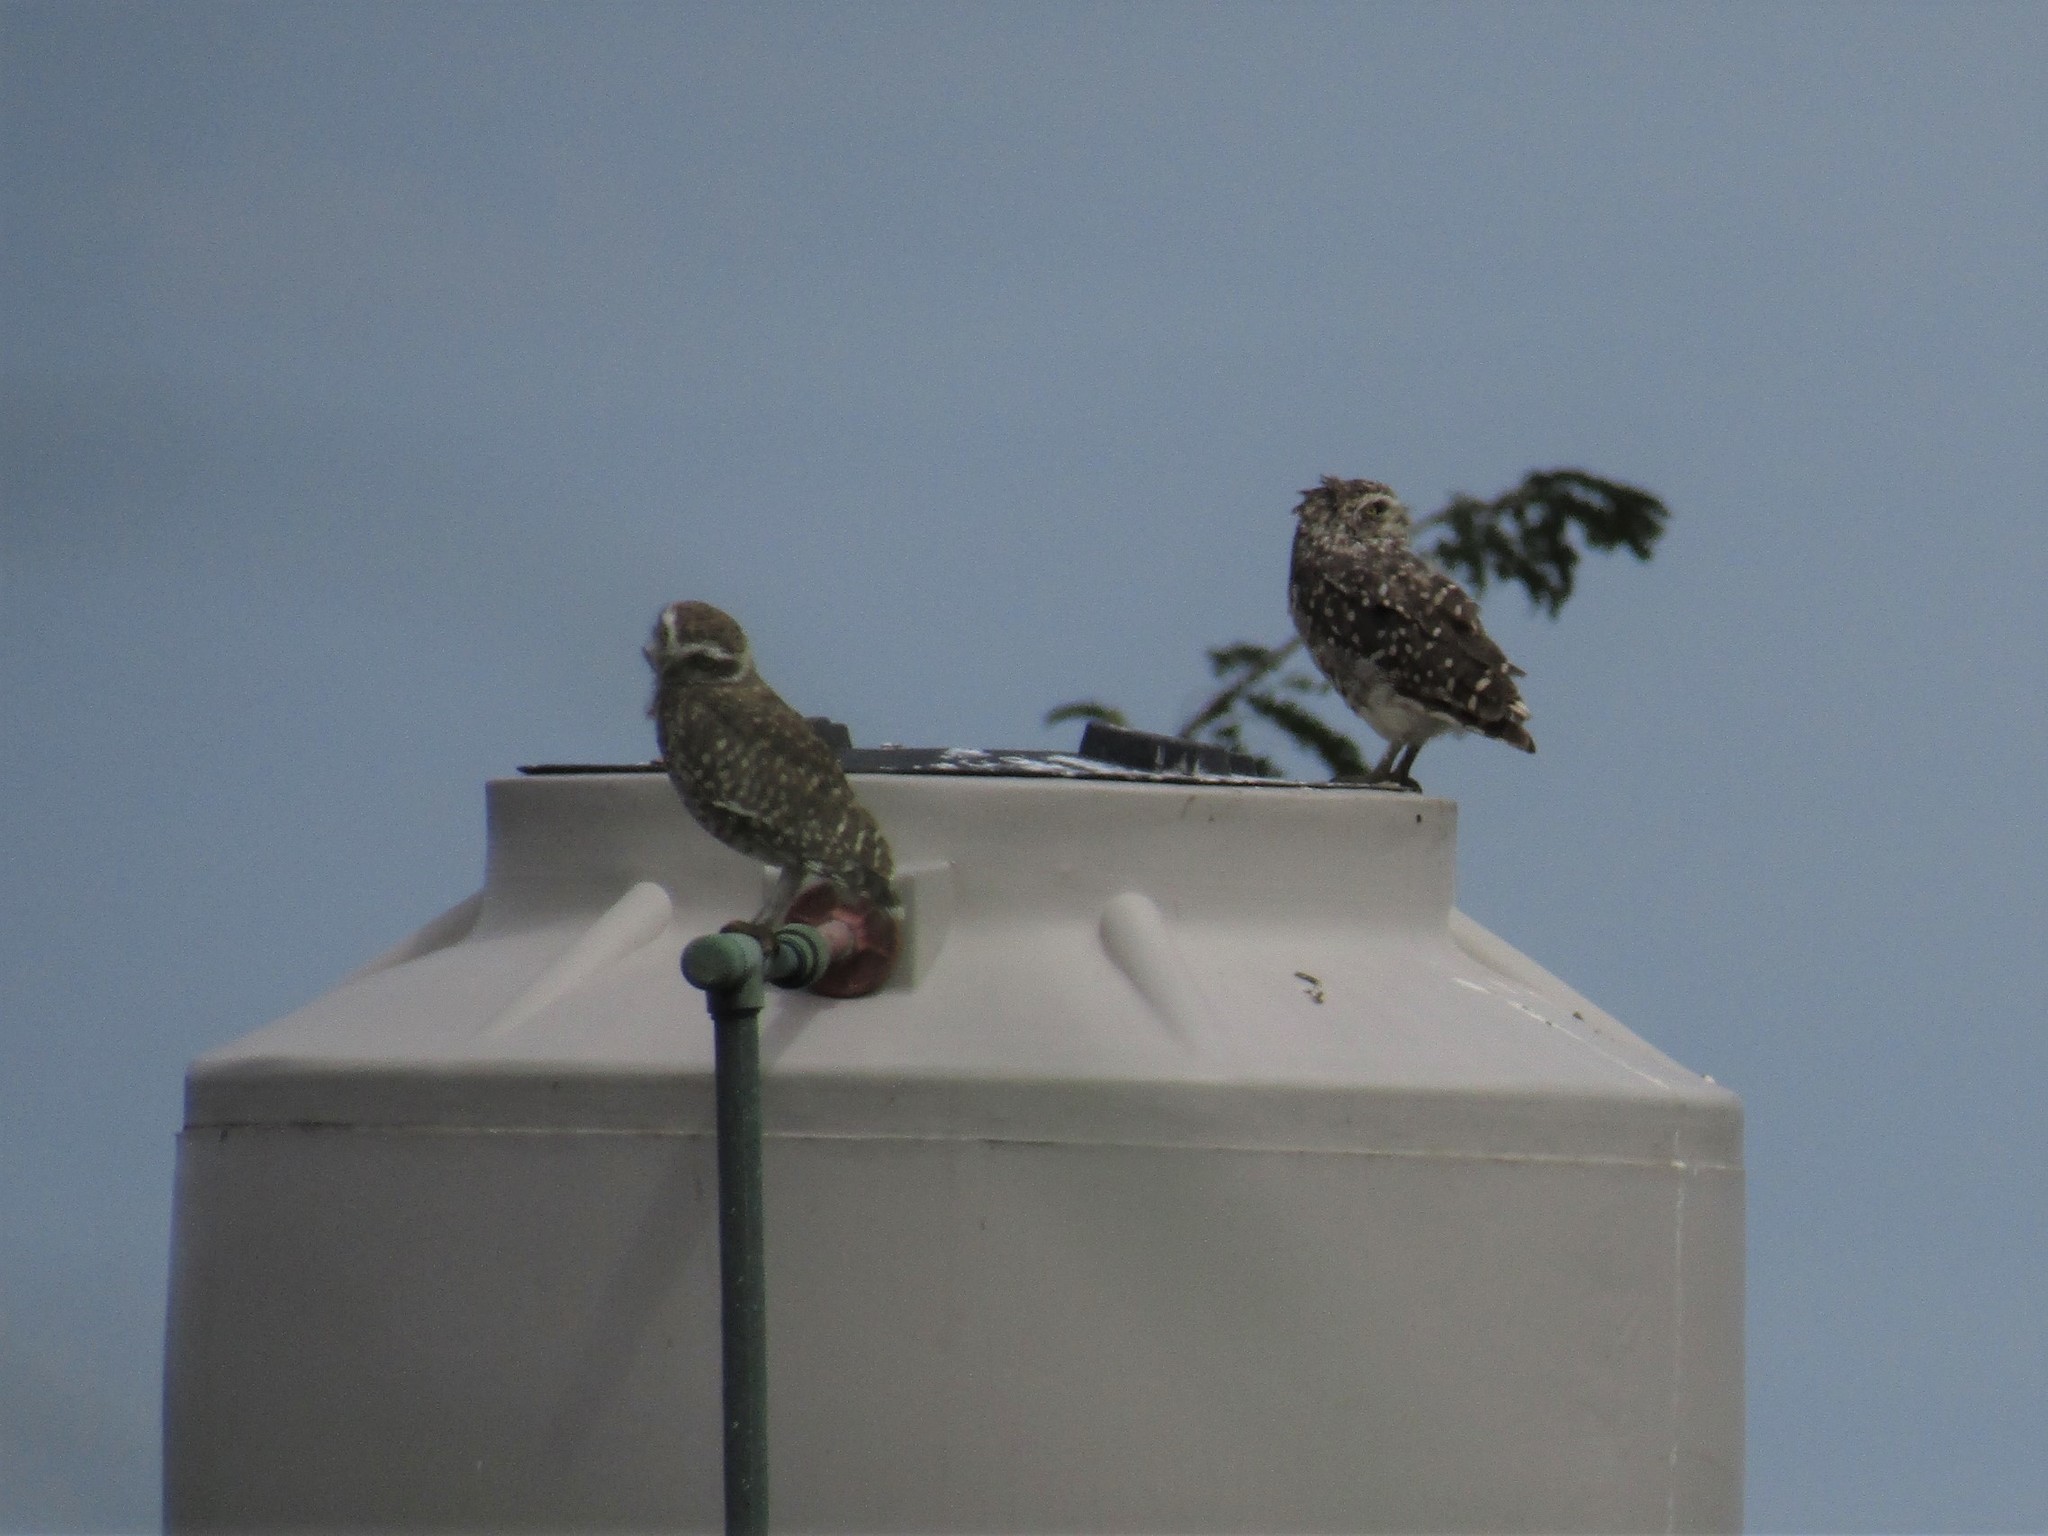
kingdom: Animalia
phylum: Chordata
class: Aves
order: Strigiformes
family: Strigidae
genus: Athene
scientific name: Athene cunicularia
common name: Burrowing owl
